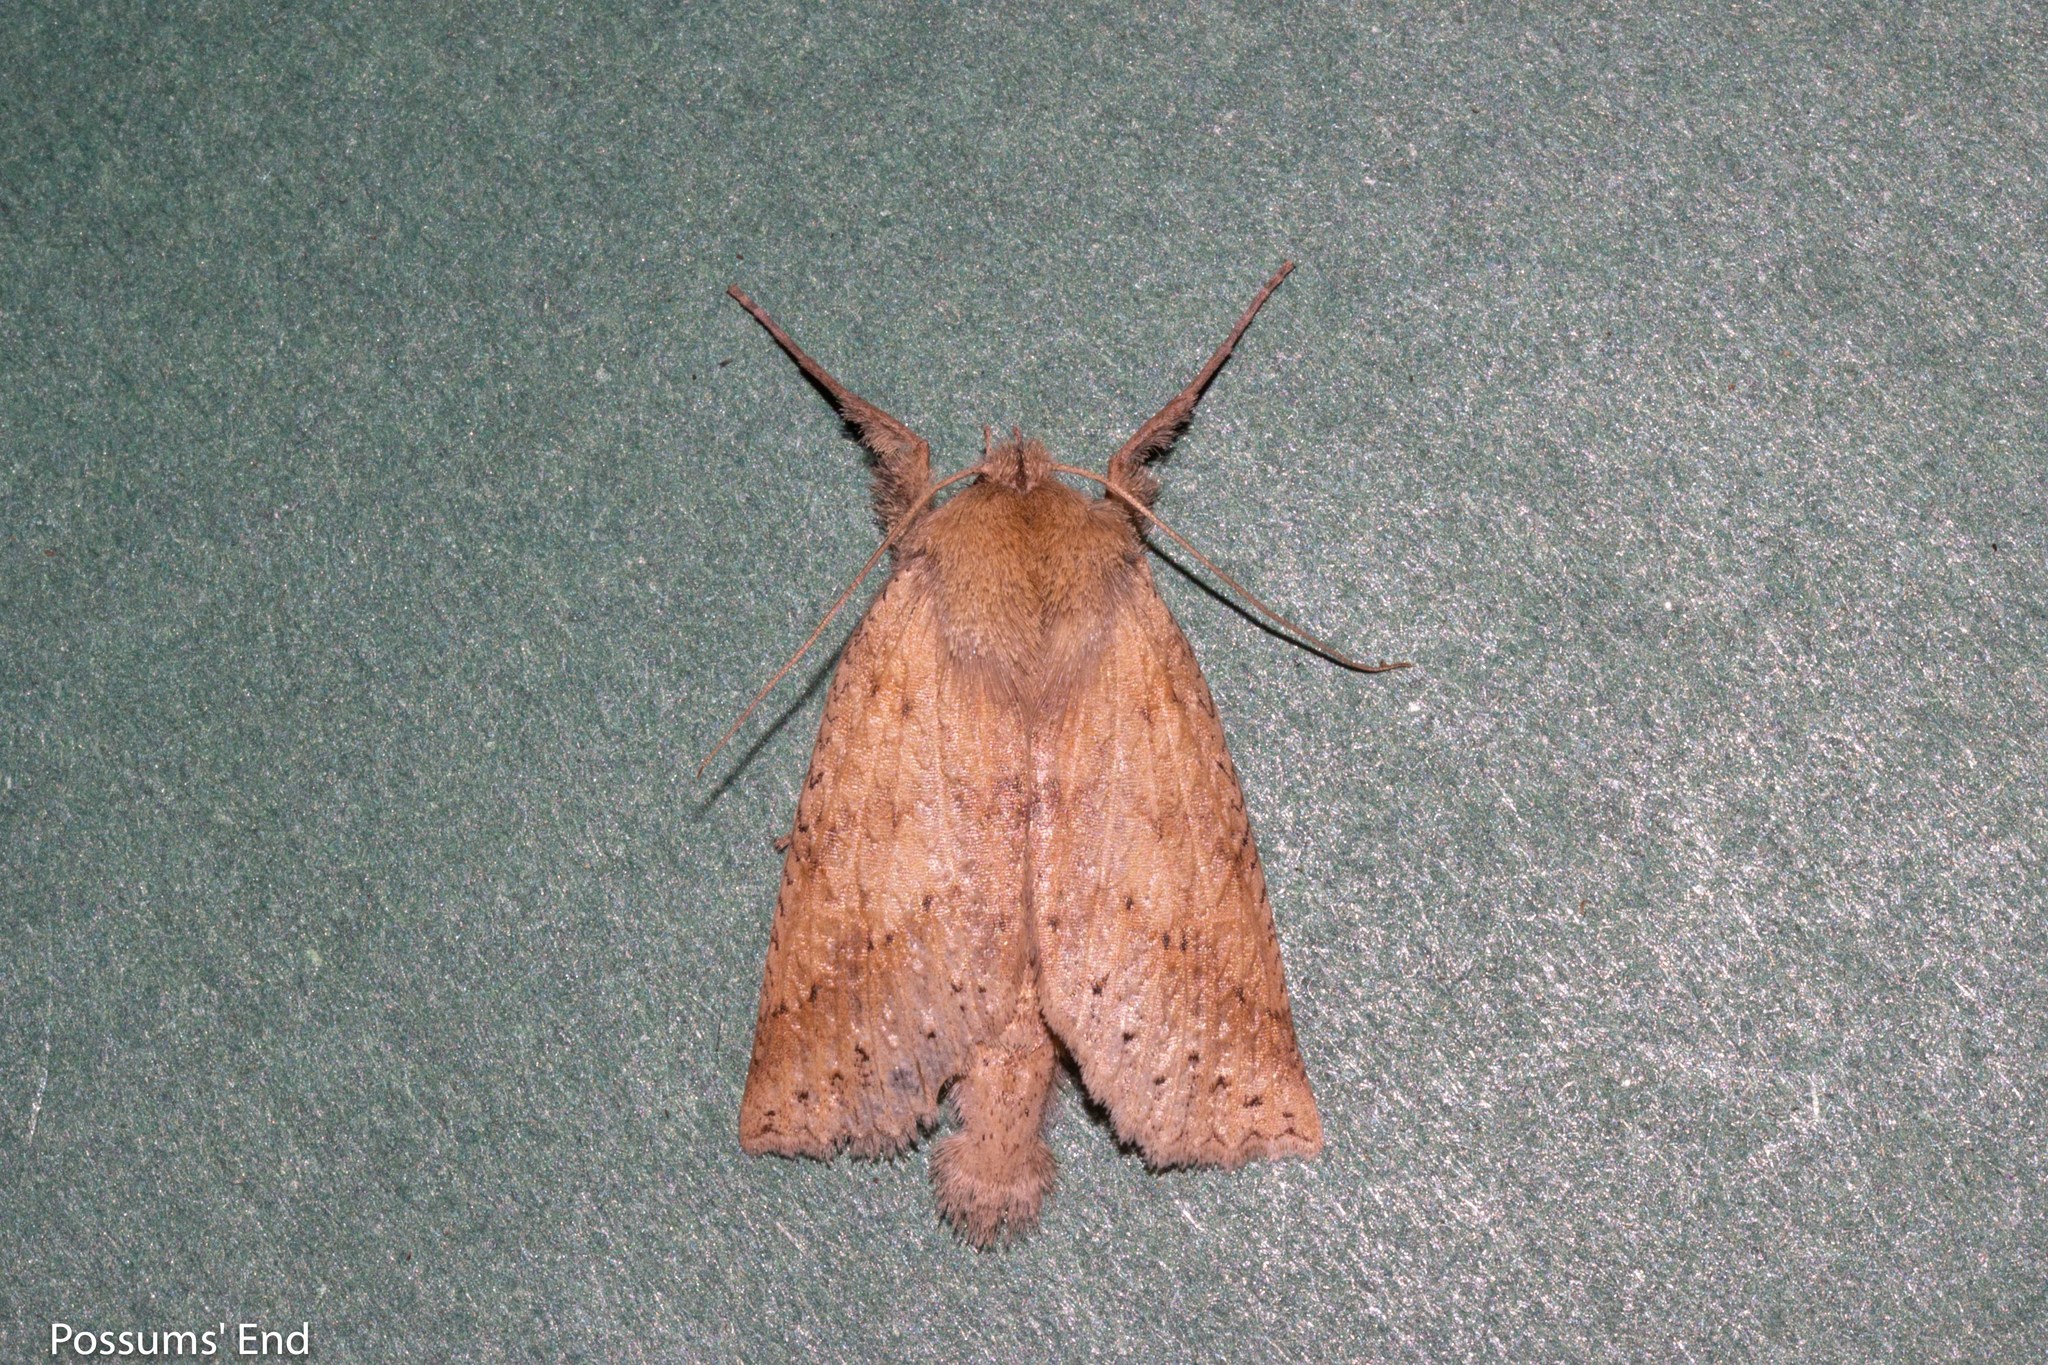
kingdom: Animalia
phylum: Arthropoda
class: Insecta
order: Lepidoptera
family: Geometridae
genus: Declana
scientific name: Declana leptomera
